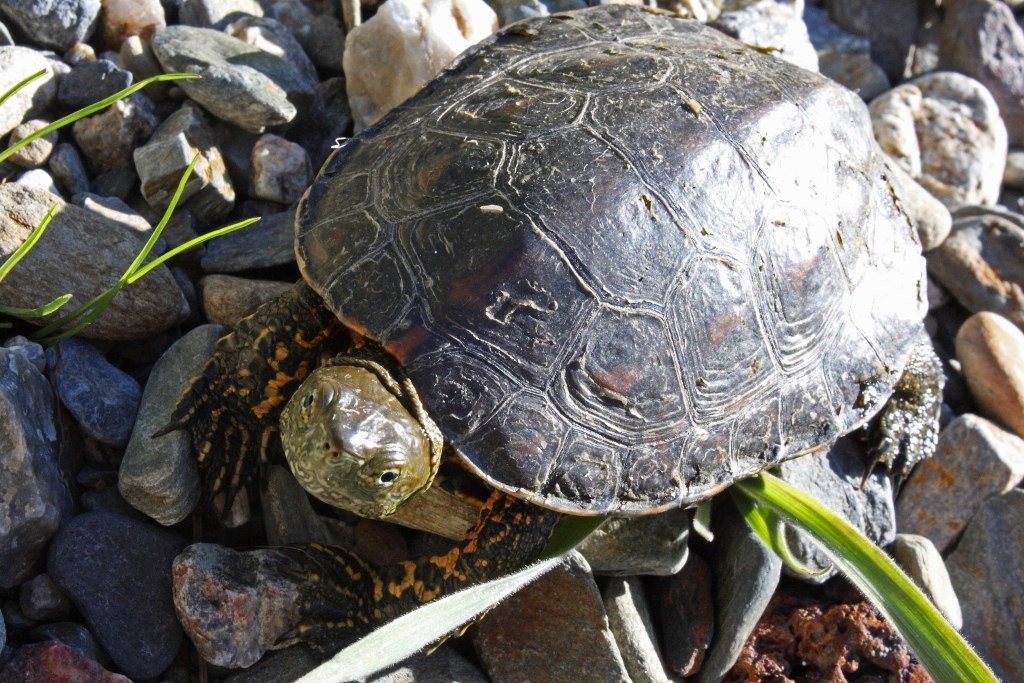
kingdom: Animalia
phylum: Chordata
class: Testudines
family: Geoemydidae
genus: Mauremys
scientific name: Mauremys leprosa
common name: Mediterranean pond turtle
